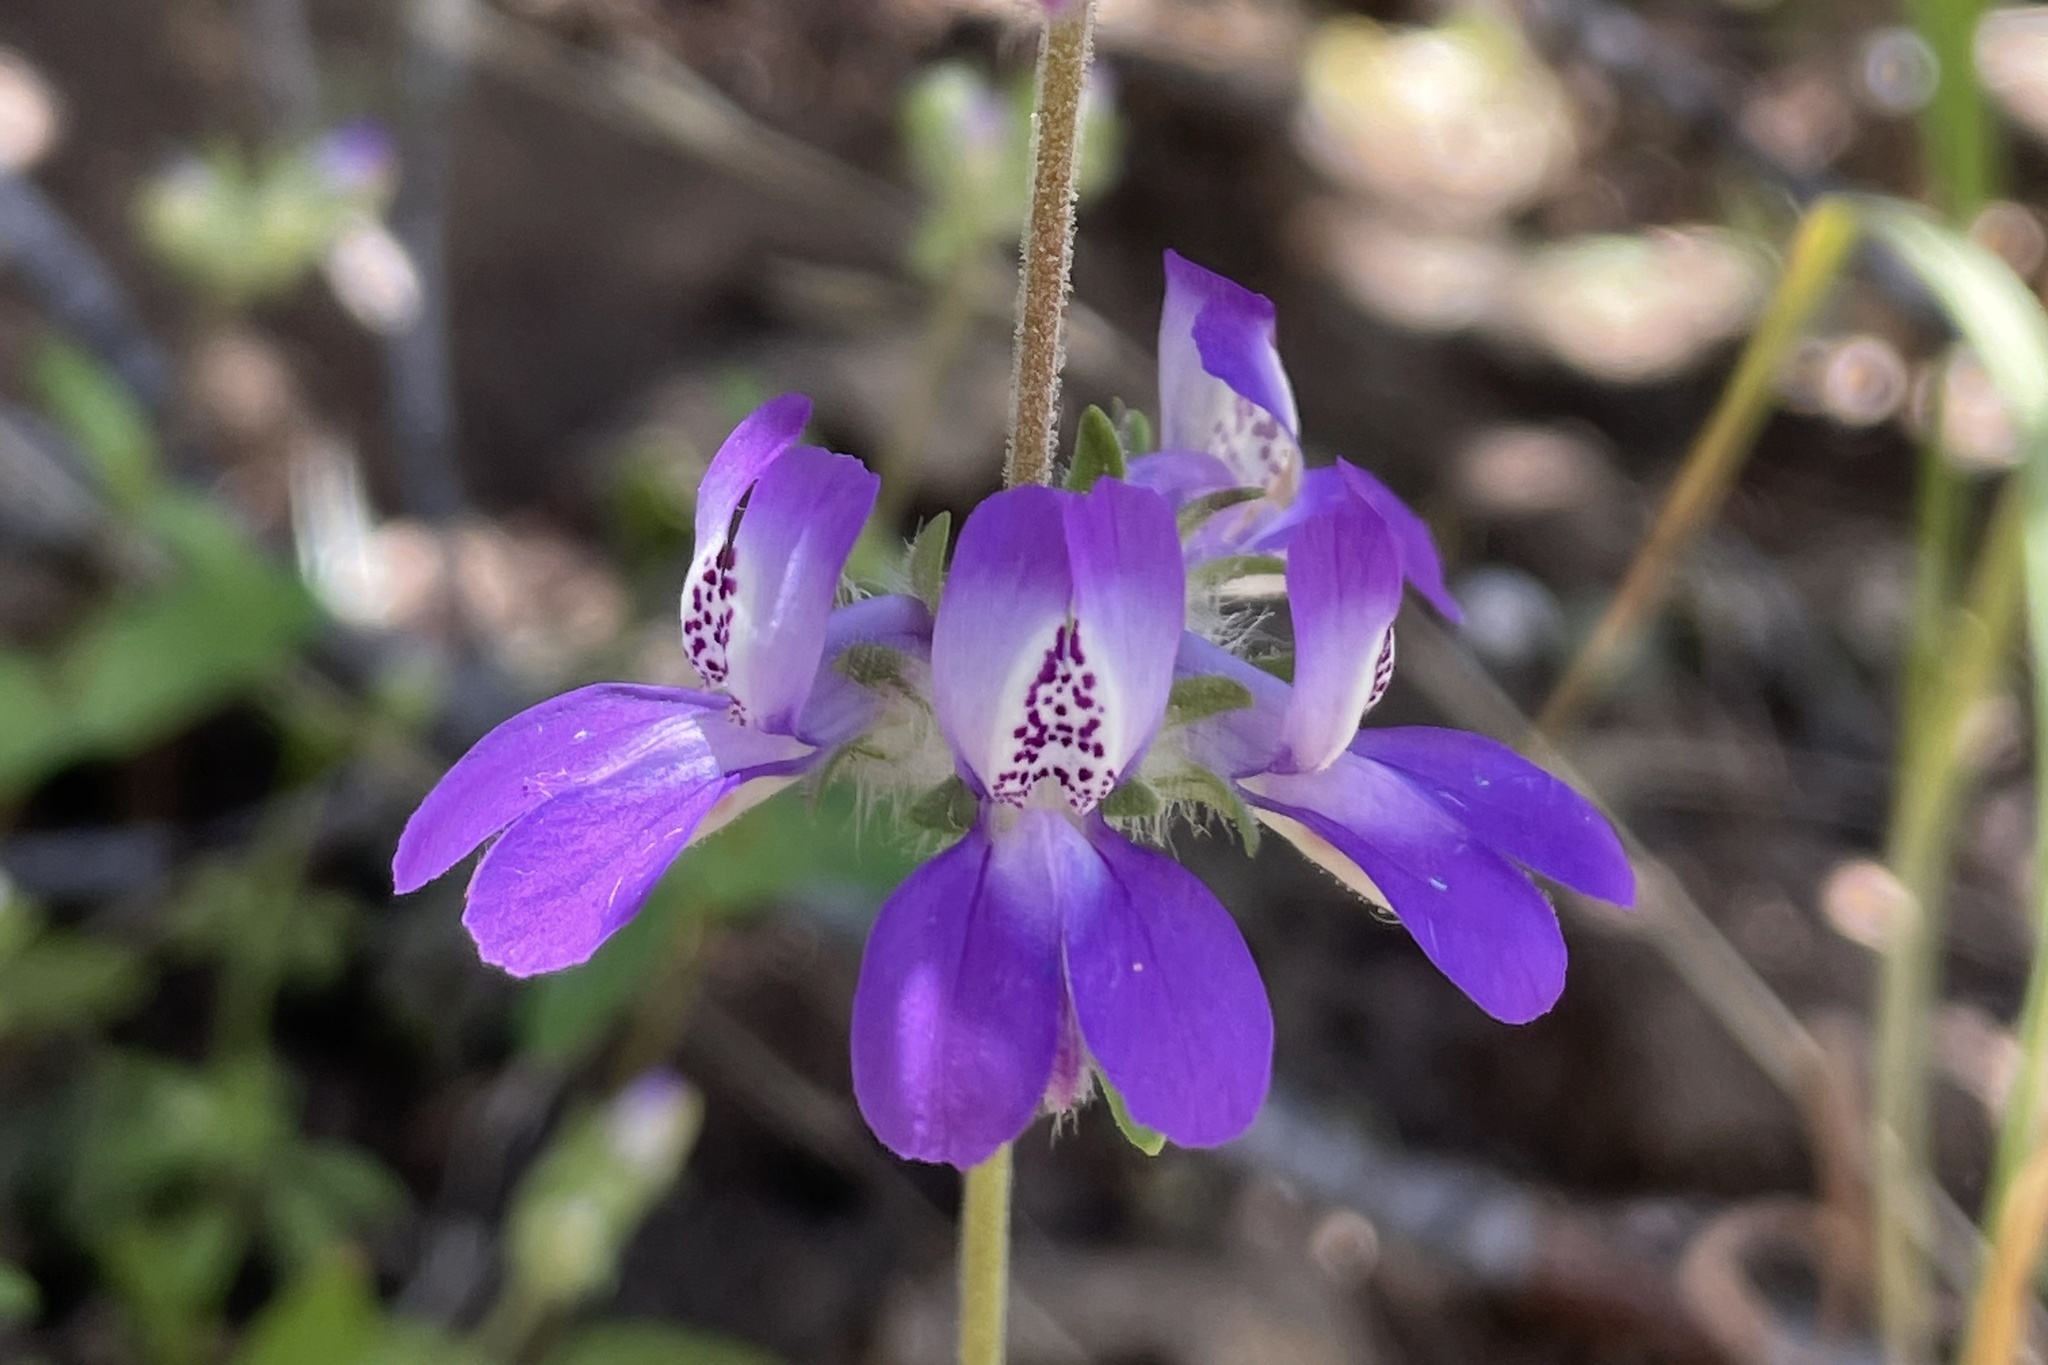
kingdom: Plantae
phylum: Tracheophyta
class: Magnoliopsida
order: Lamiales
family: Plantaginaceae
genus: Collinsia
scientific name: Collinsia concolor
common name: Chinese houses
